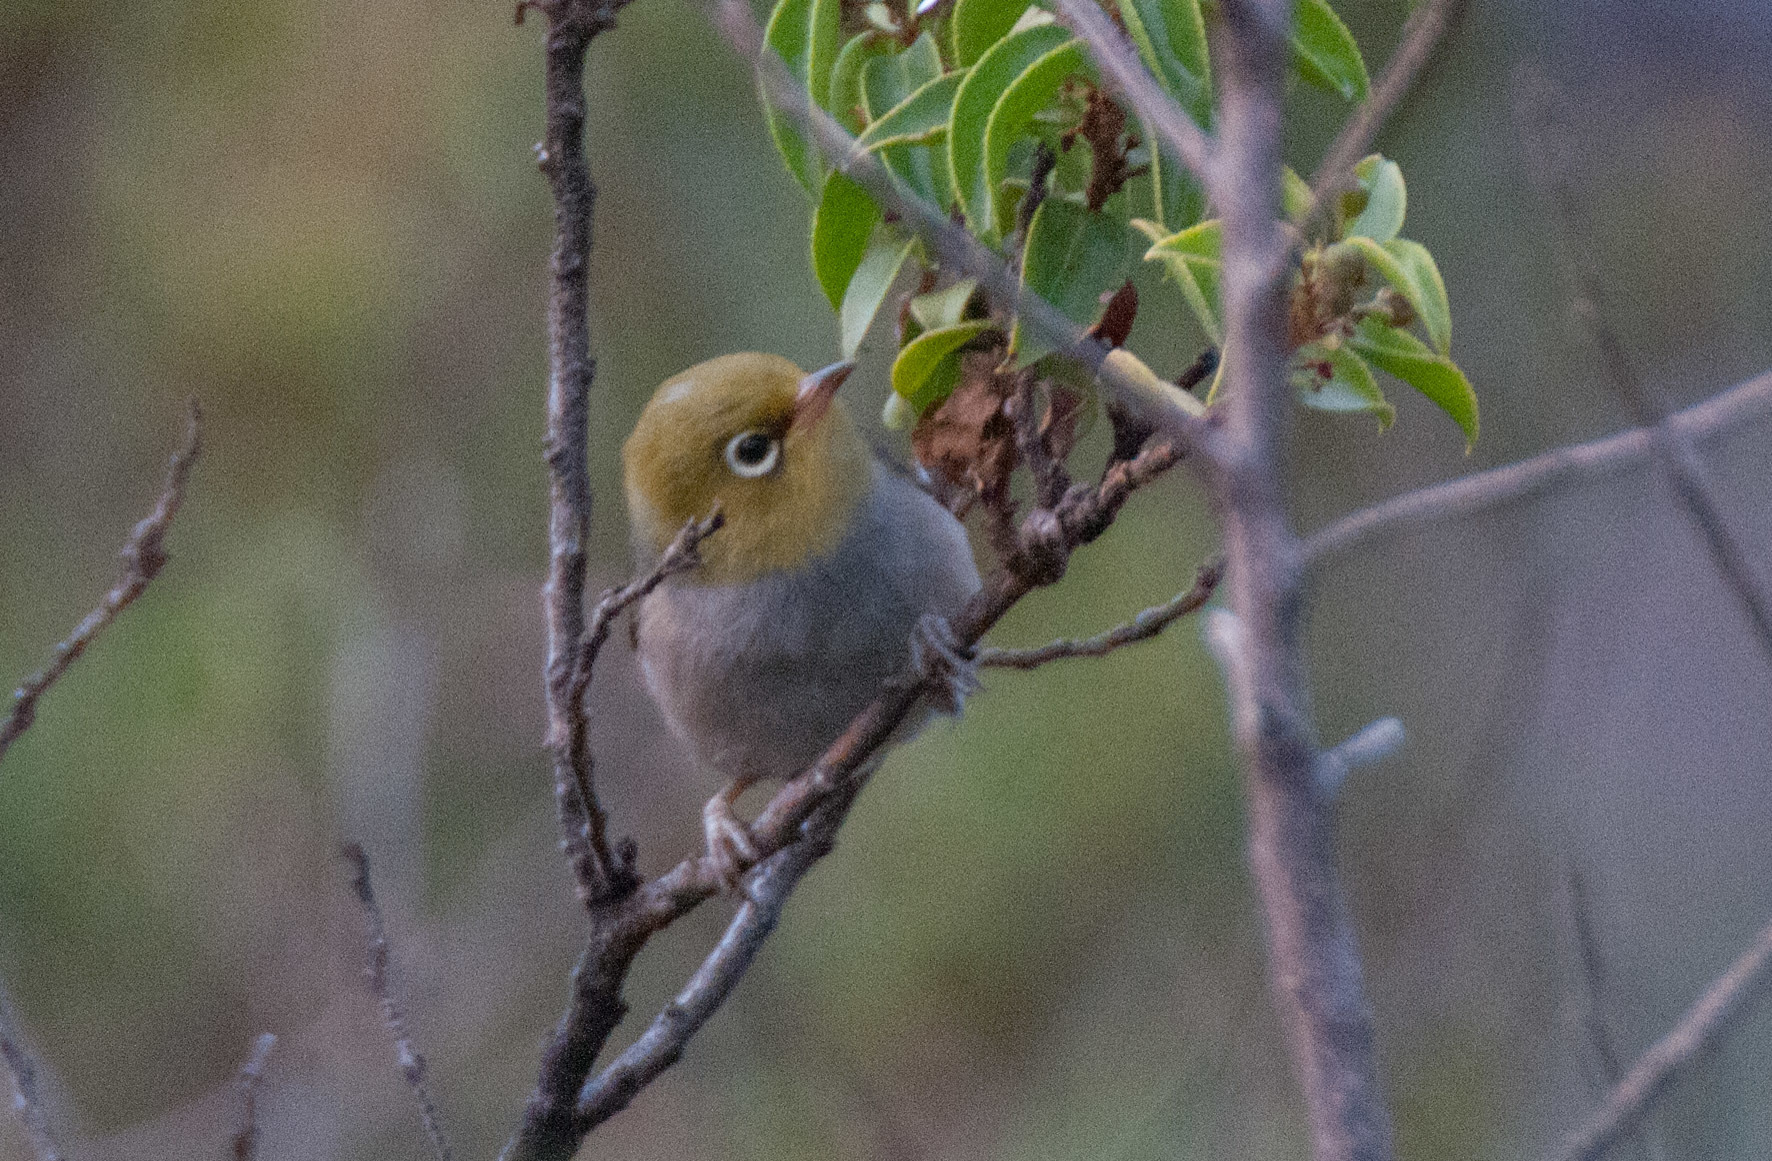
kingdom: Animalia
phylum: Chordata
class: Aves
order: Passeriformes
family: Zosteropidae
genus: Zosterops
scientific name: Zosterops lateralis
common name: Silvereye
